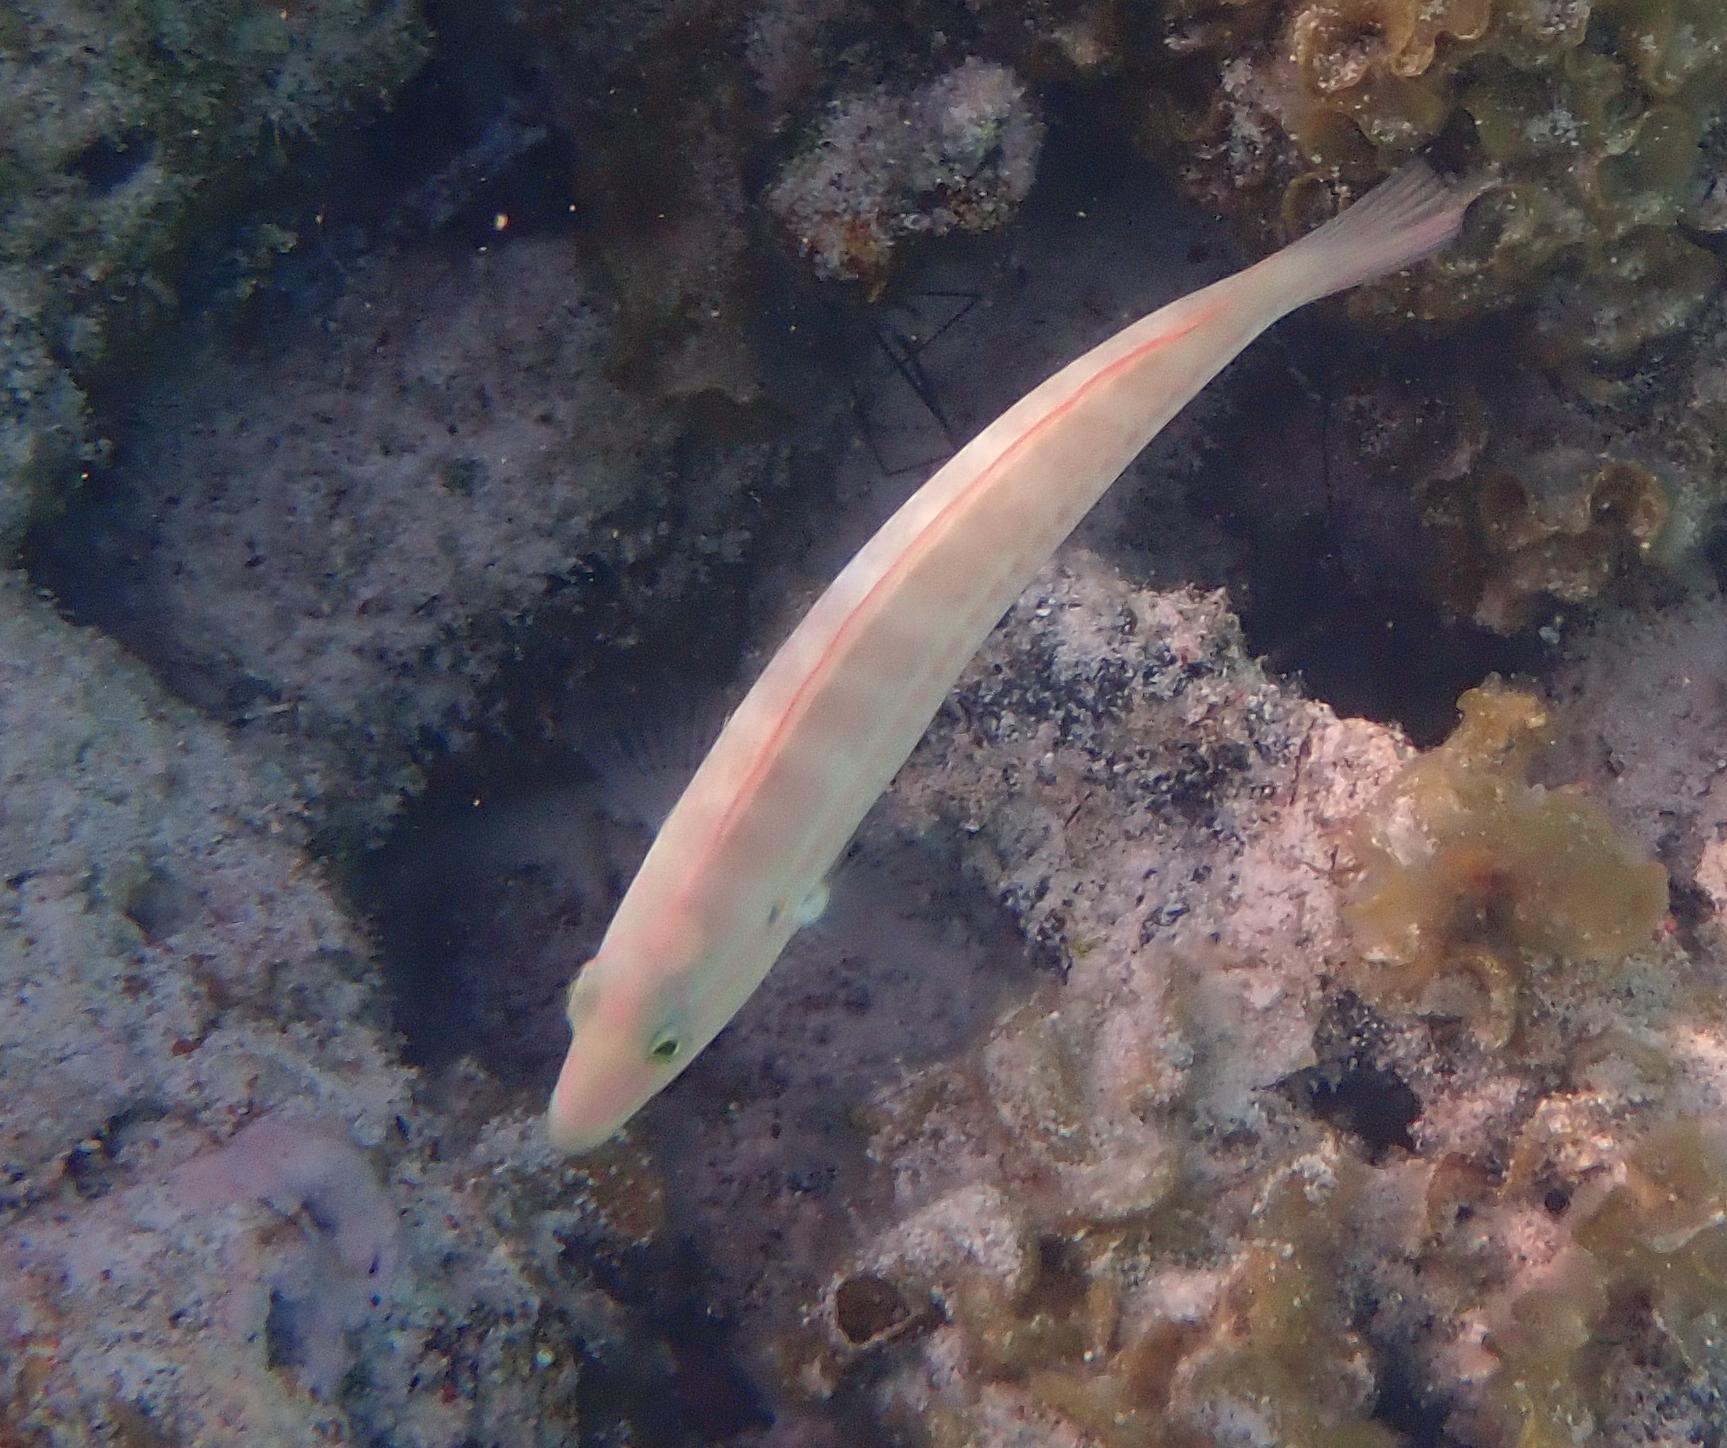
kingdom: Animalia
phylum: Chordata
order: Perciformes
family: Labridae
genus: Halichoeres
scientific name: Halichoeres bivittatus
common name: Slippery dick
